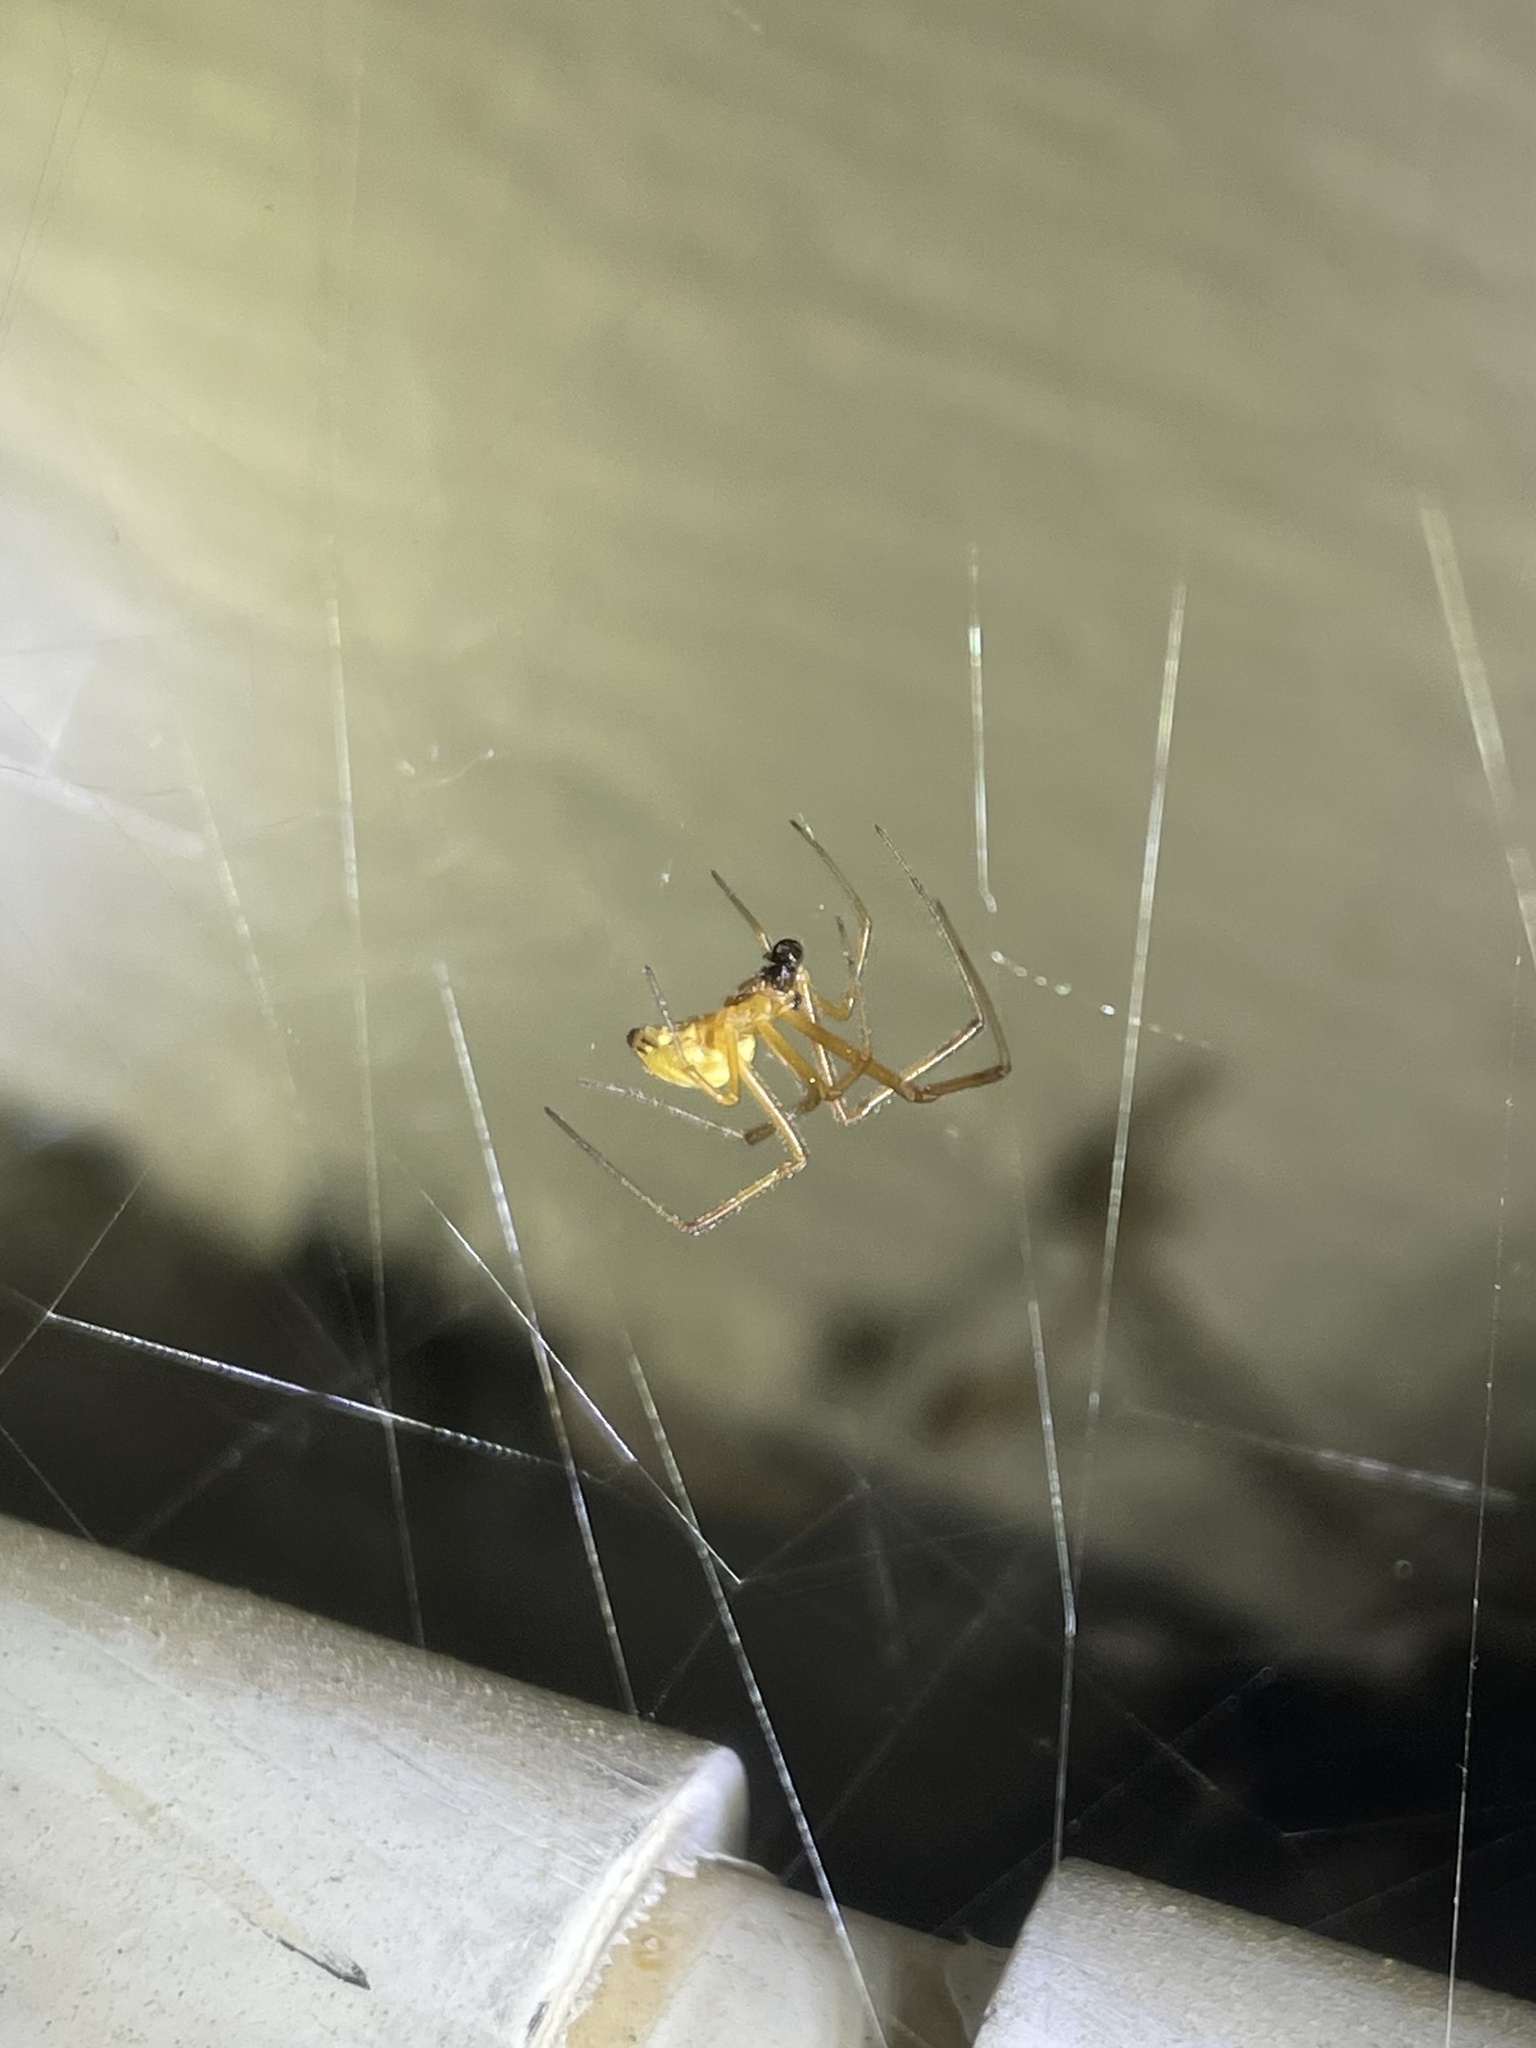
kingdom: Animalia
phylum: Arthropoda
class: Arachnida
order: Araneae
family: Theridiidae
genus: Latrodectus
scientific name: Latrodectus hesperus
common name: Western black widow
